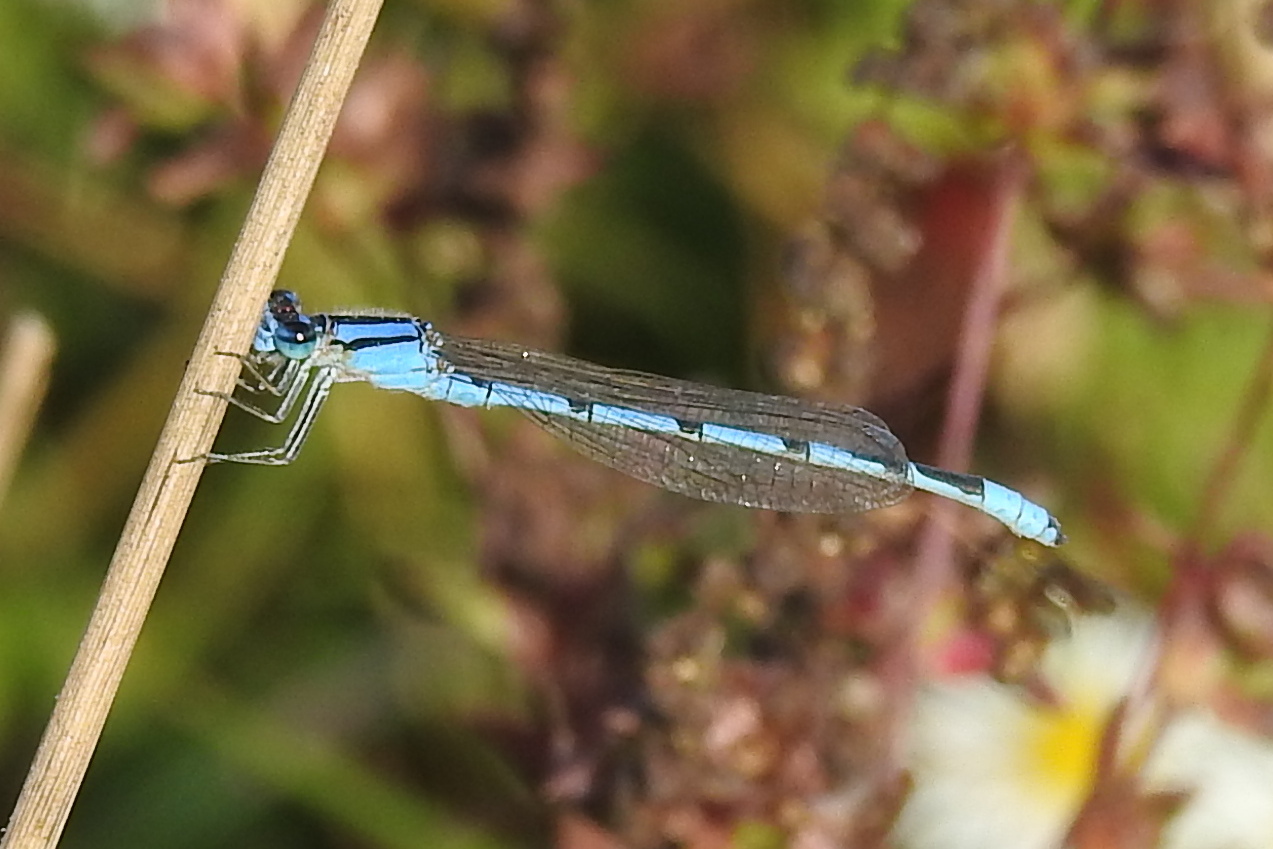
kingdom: Animalia
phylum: Arthropoda
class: Insecta
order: Odonata
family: Coenagrionidae
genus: Enallagma
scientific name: Enallagma civile
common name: Damselfly
